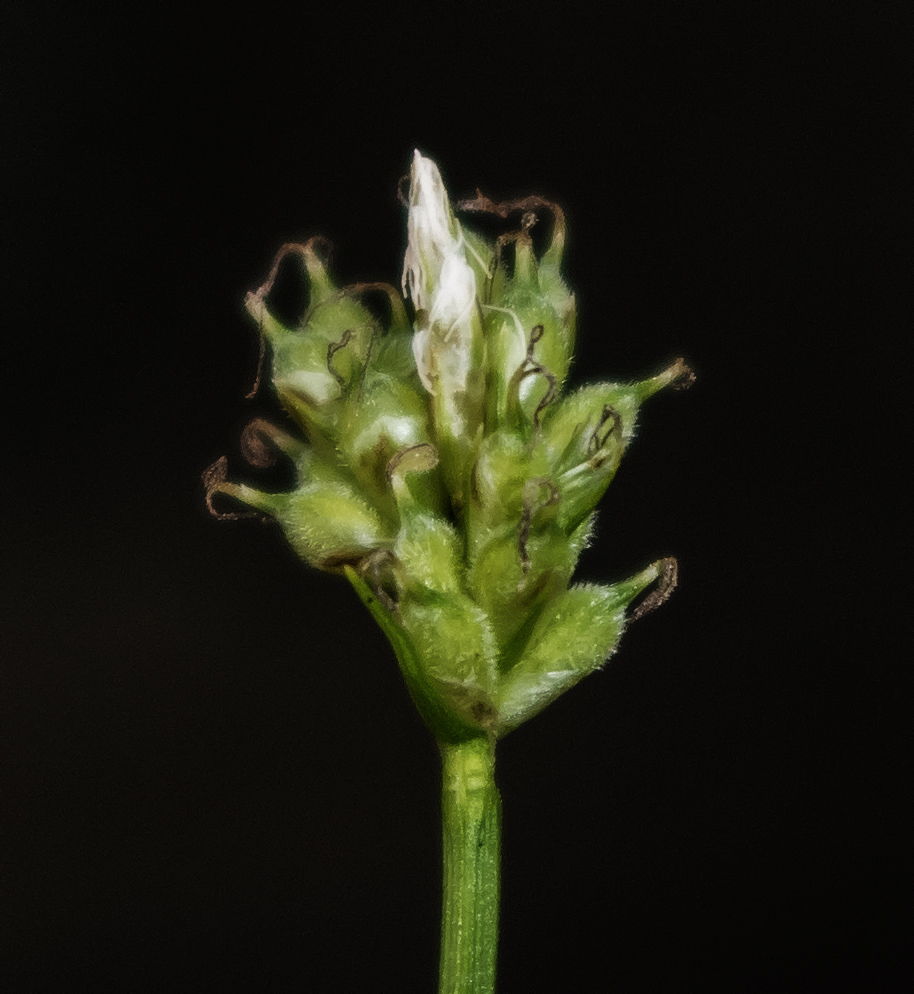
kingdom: Plantae
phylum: Tracheophyta
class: Liliopsida
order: Poales
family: Cyperaceae
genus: Carex
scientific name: Carex peckii
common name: Peck's oak sedge
